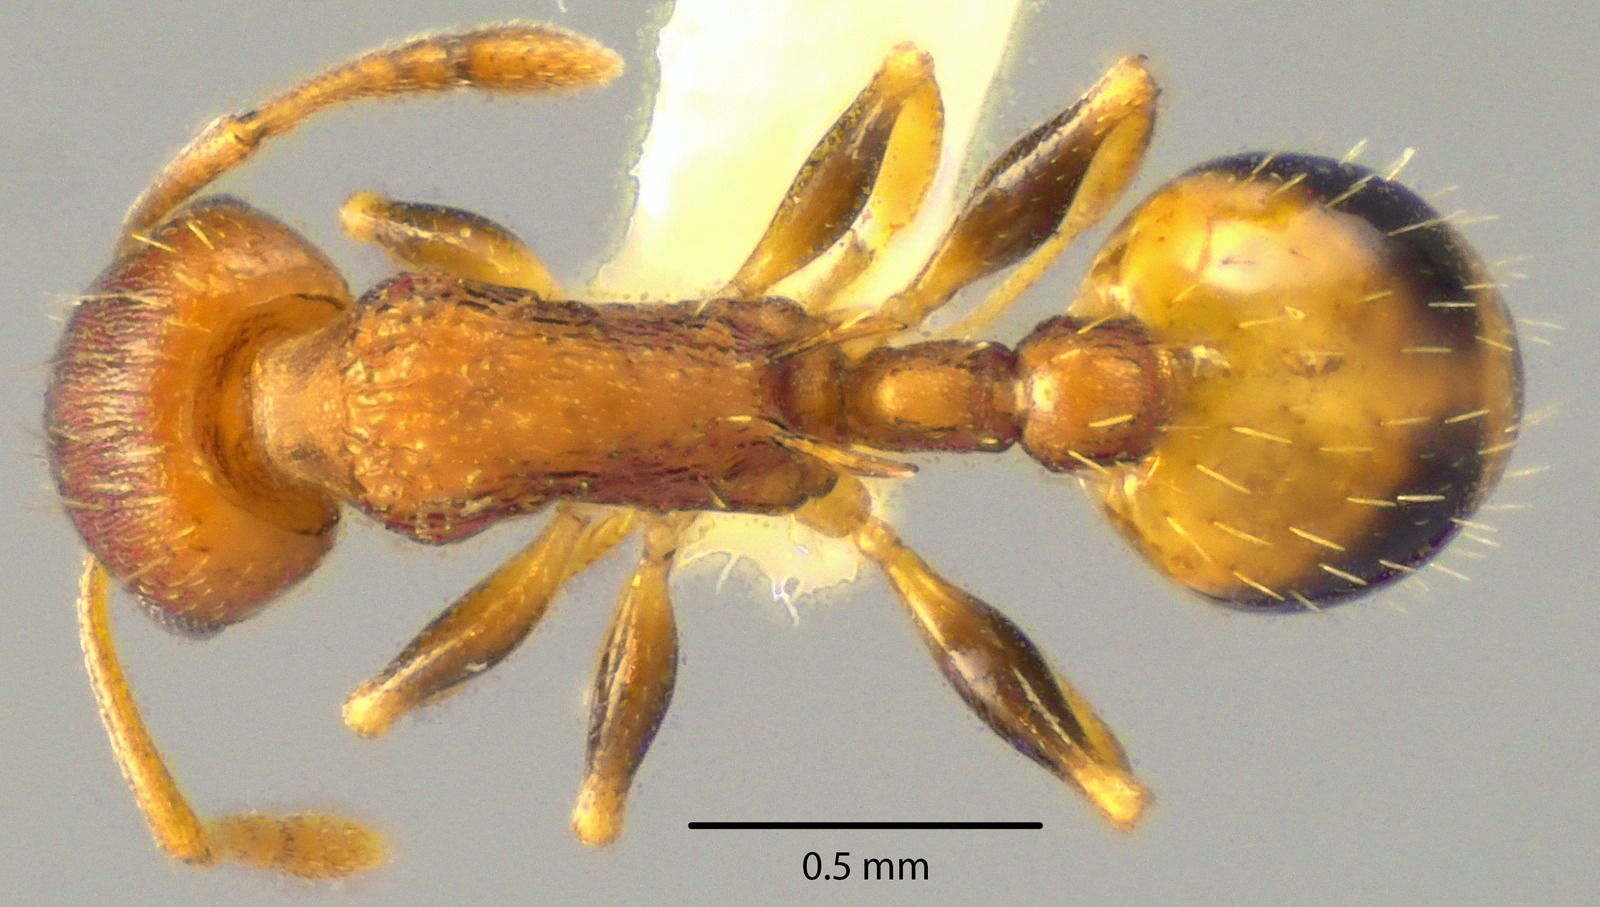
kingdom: Animalia
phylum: Arthropoda
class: Insecta
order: Hymenoptera
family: Formicidae
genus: Temnothorax
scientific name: Temnothorax curvispinosus
